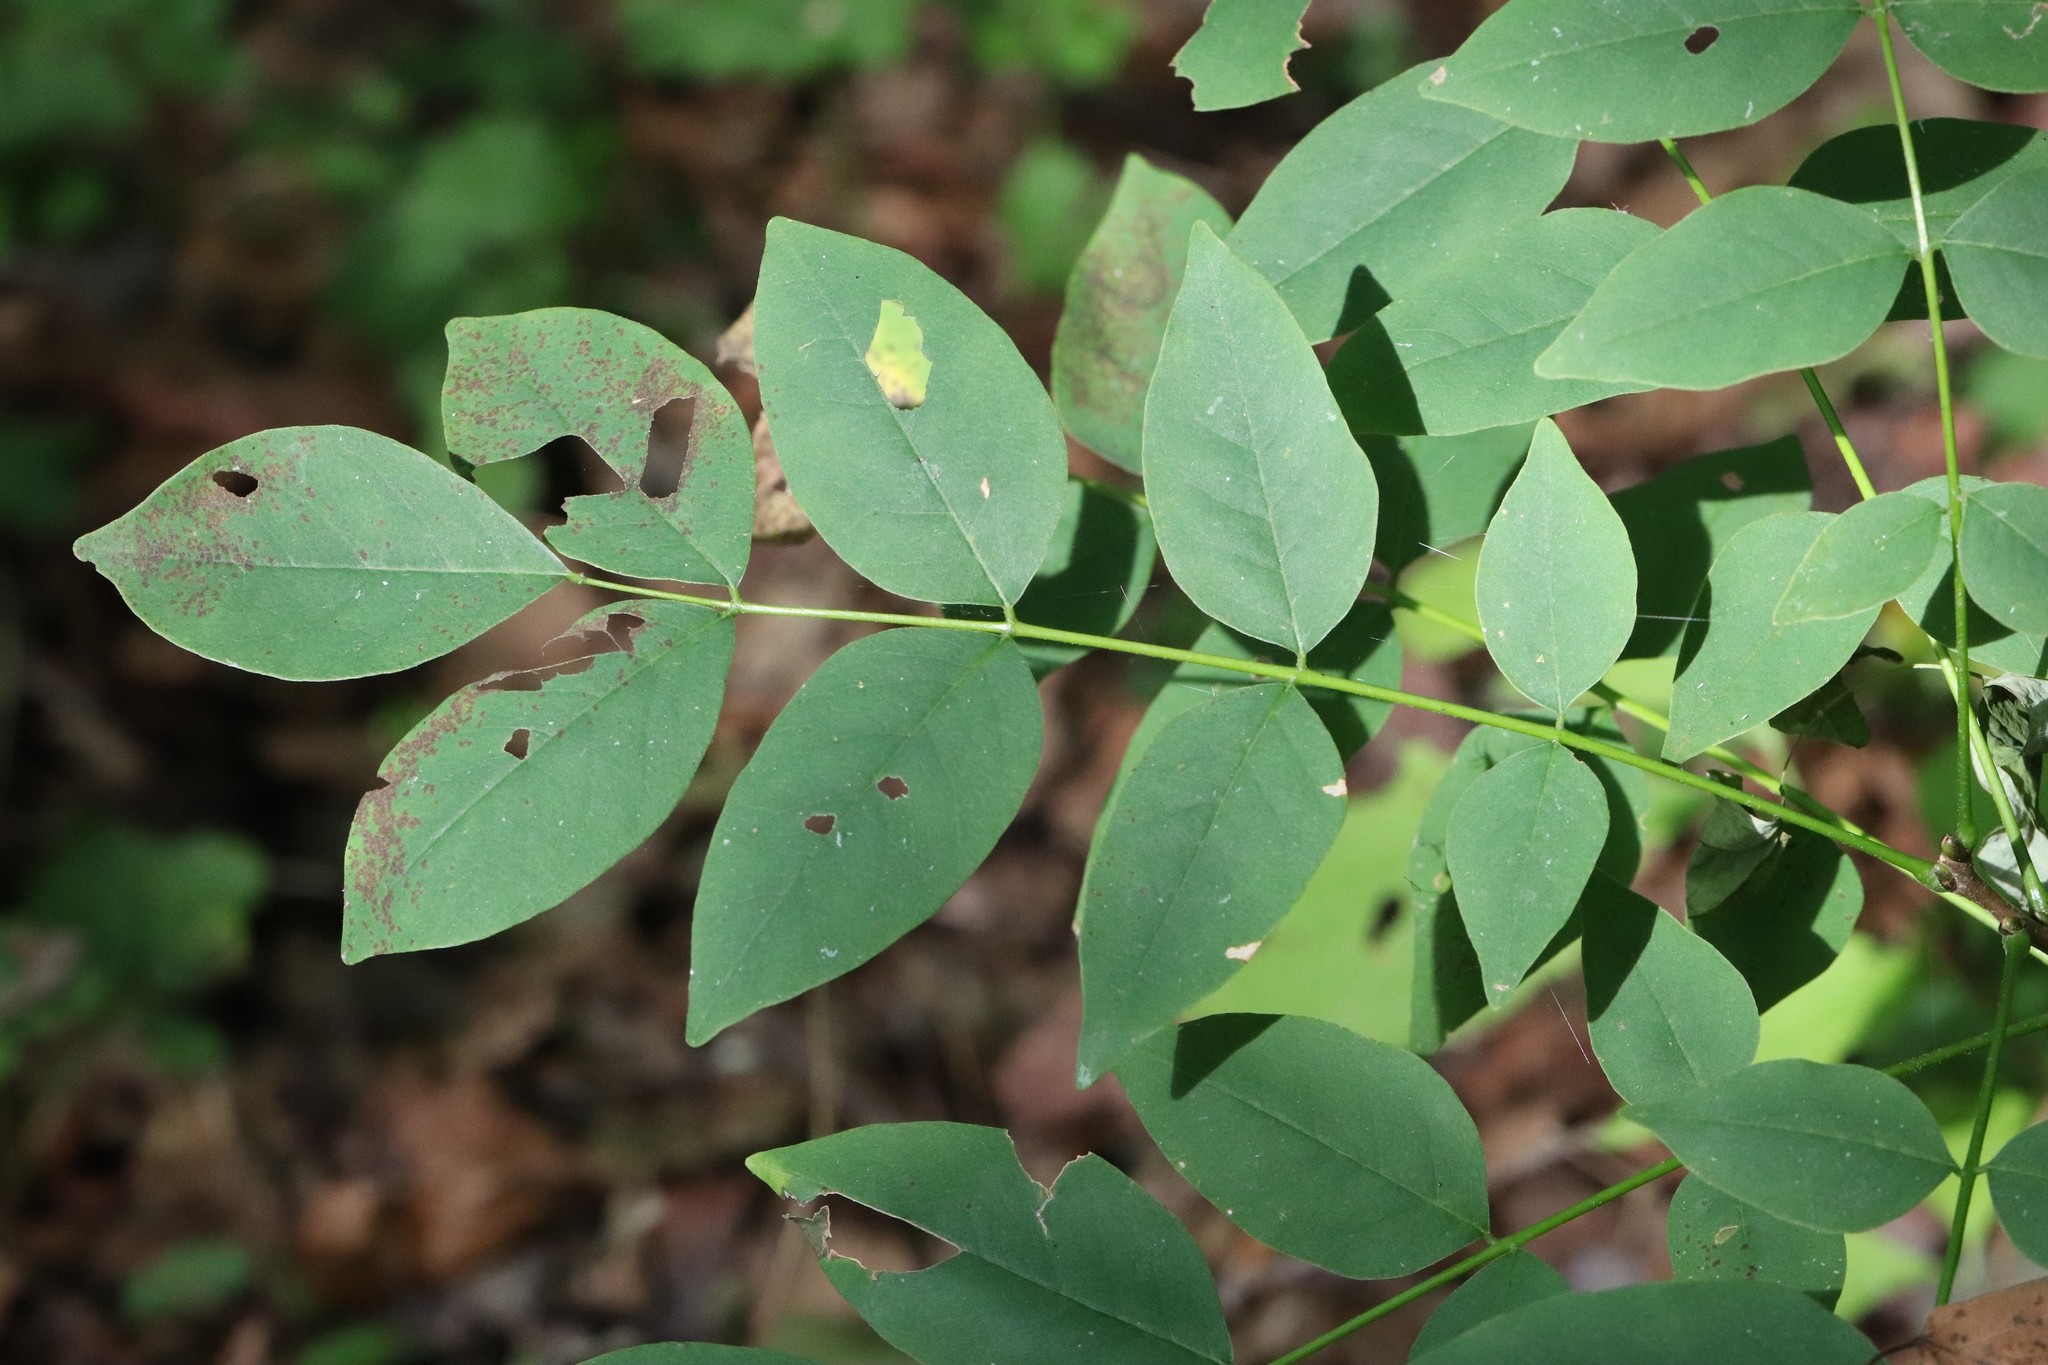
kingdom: Plantae
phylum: Tracheophyta
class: Magnoliopsida
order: Fabales
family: Fabaceae
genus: Maackia
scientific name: Maackia amurensis
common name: Amur maackia
